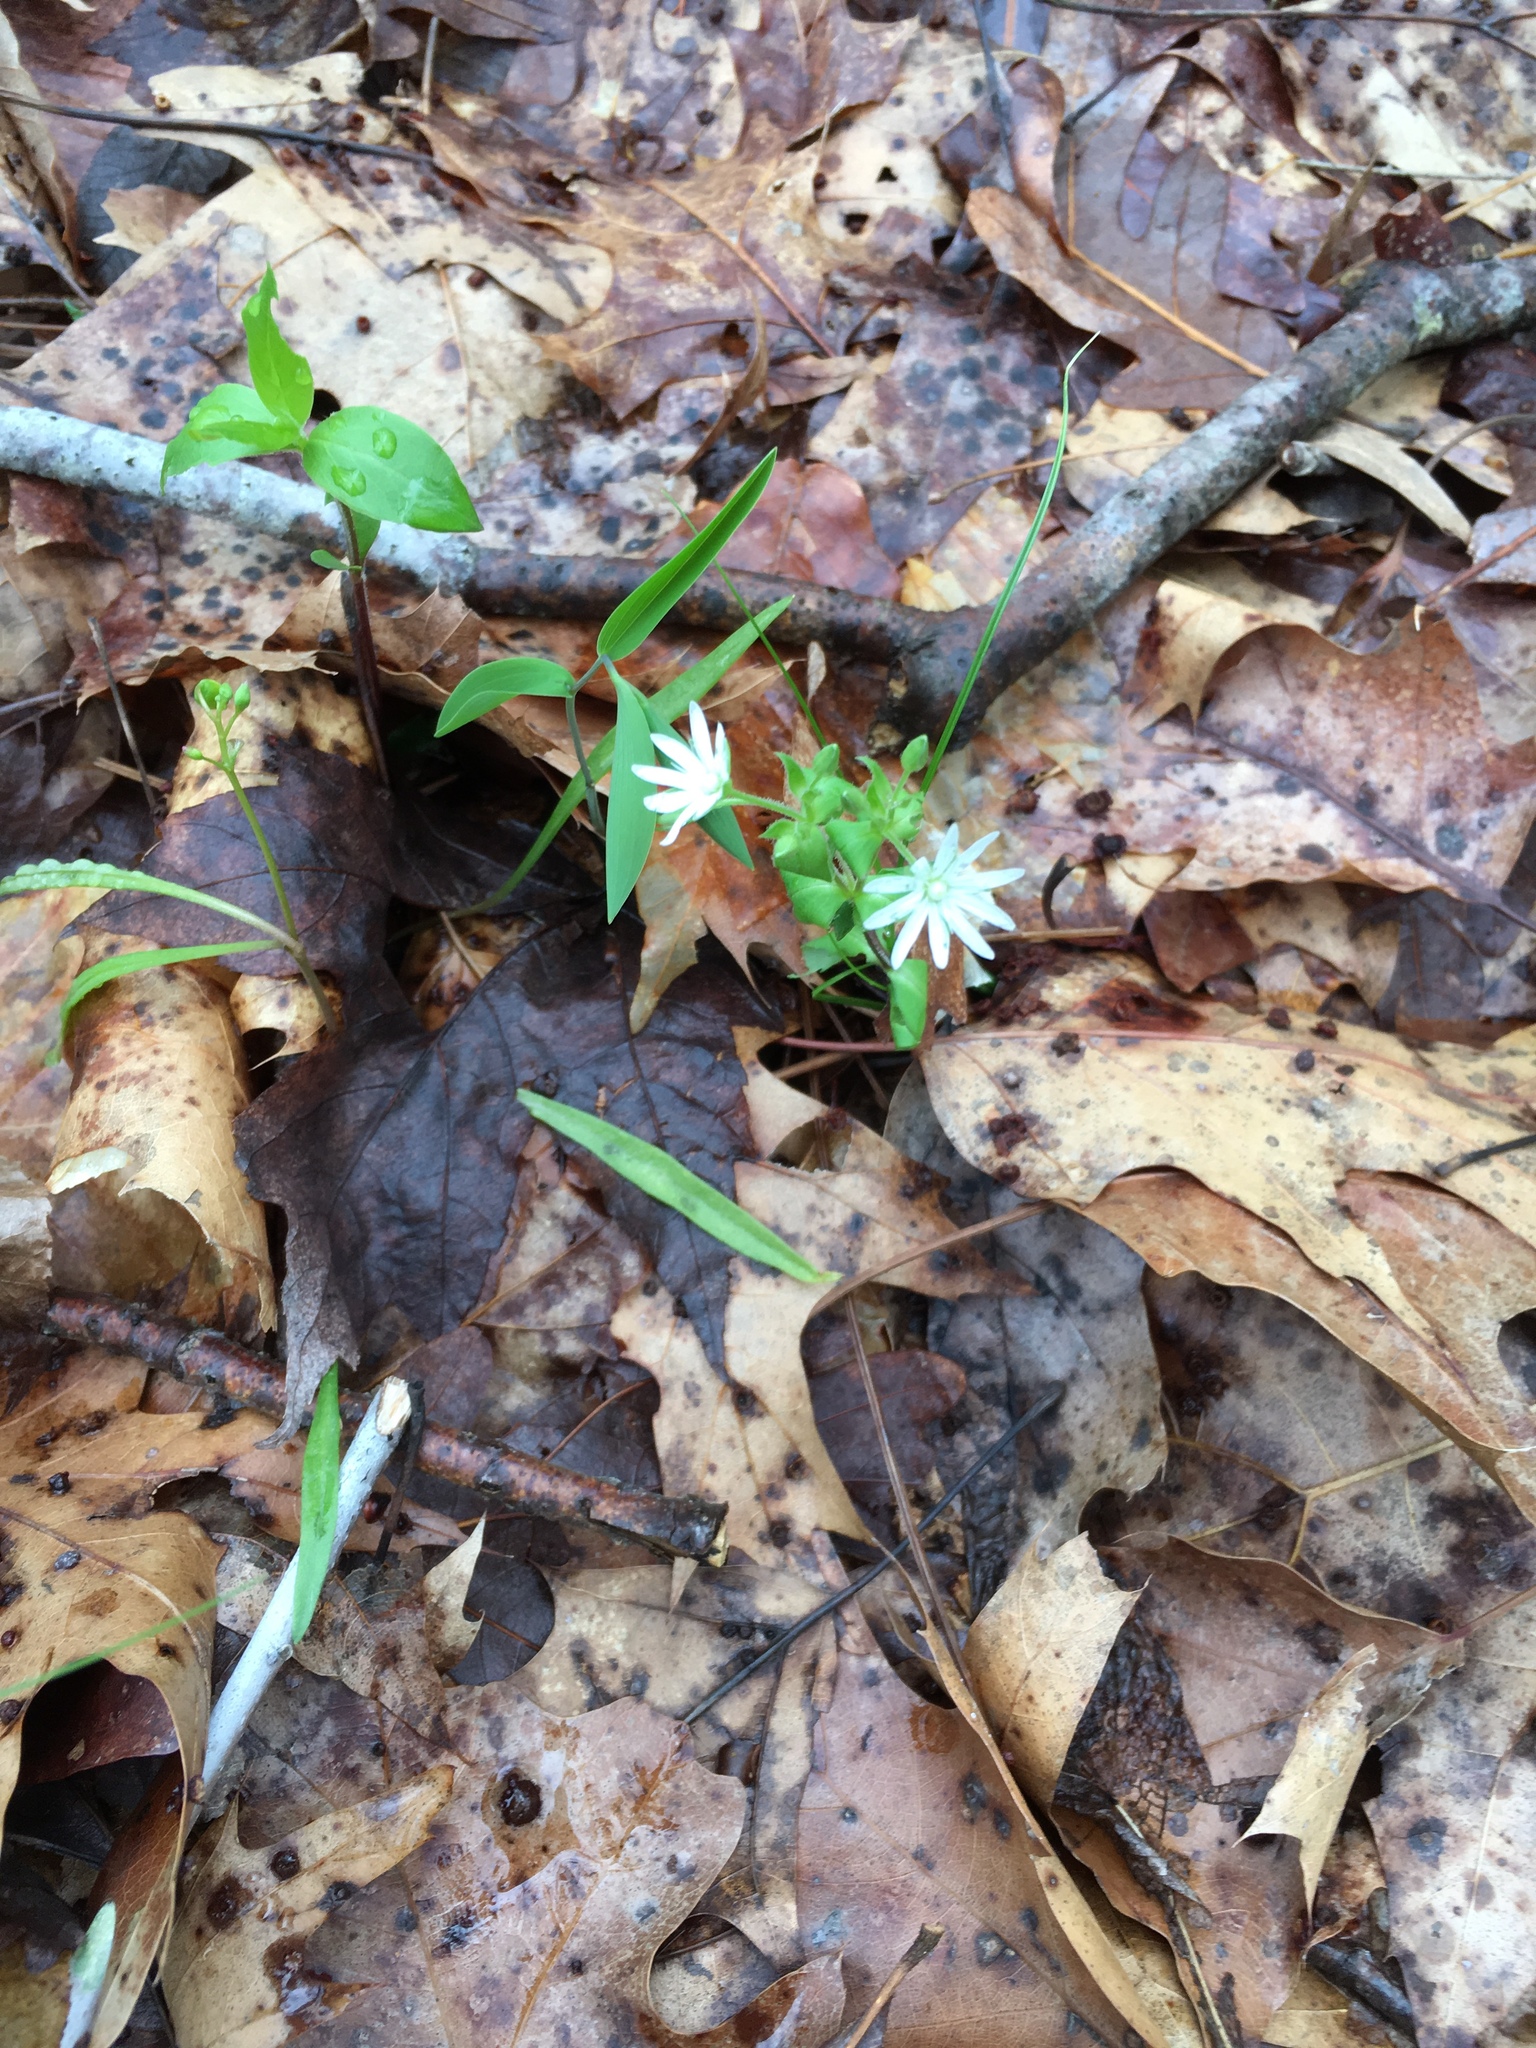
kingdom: Plantae
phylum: Tracheophyta
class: Magnoliopsida
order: Caryophyllales
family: Caryophyllaceae
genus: Stellaria
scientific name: Stellaria pubera
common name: Star chickweed
